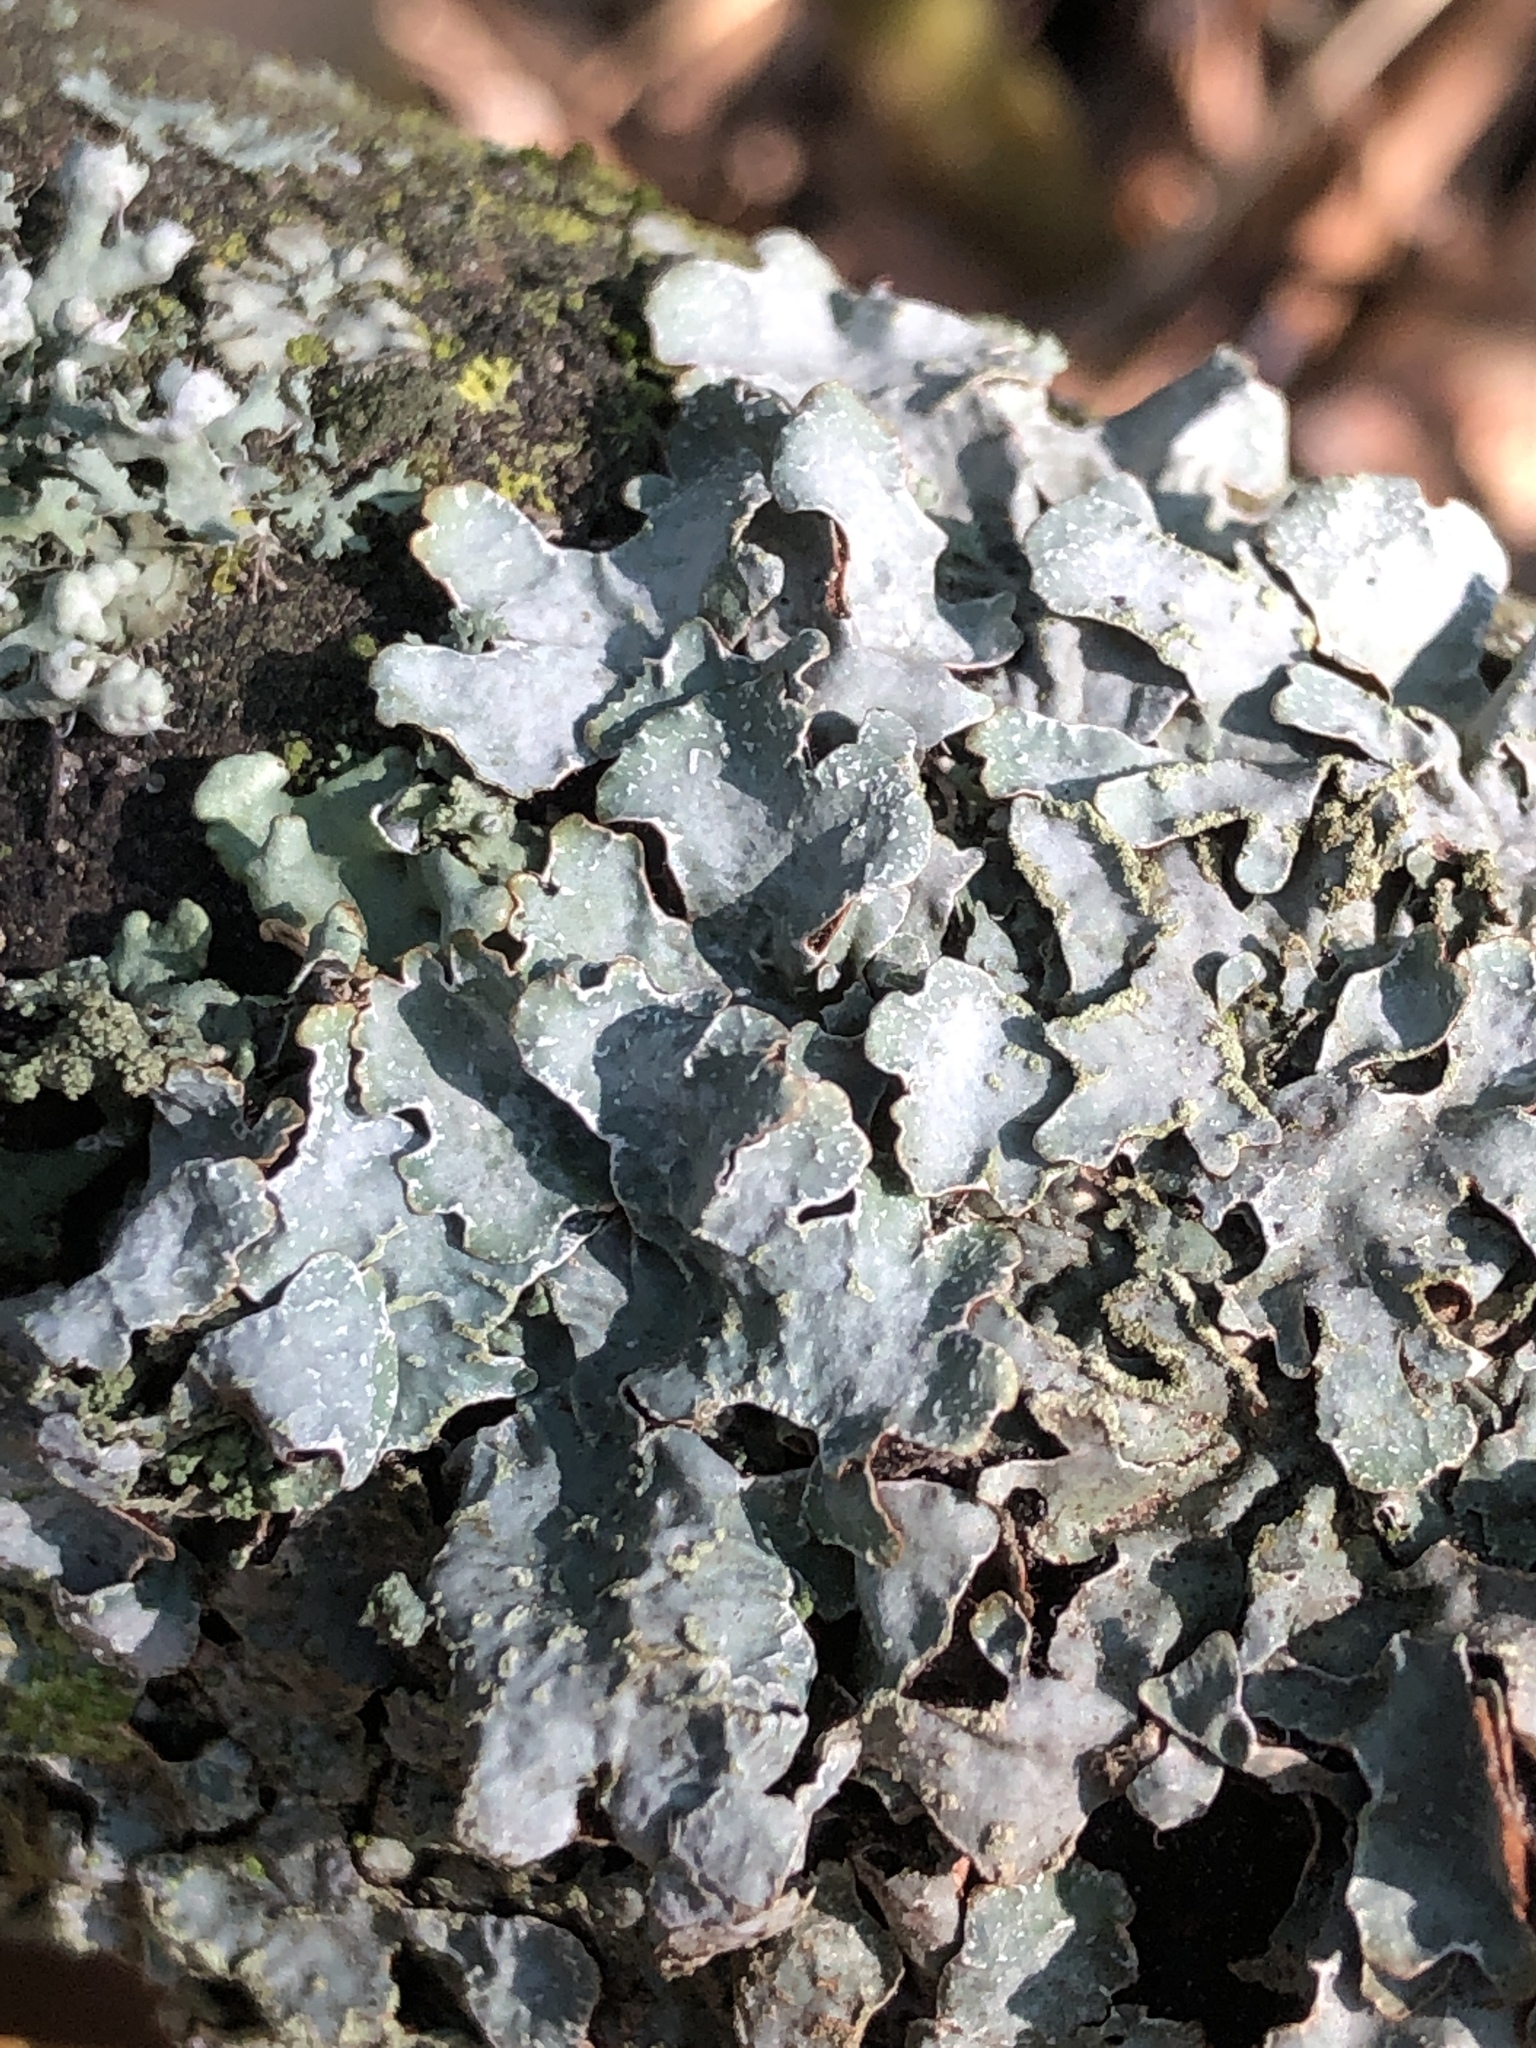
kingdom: Fungi
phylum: Ascomycota
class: Lecanoromycetes
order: Lecanorales
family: Parmeliaceae
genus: Parmelia
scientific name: Parmelia sulcata
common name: Netted shield lichen
